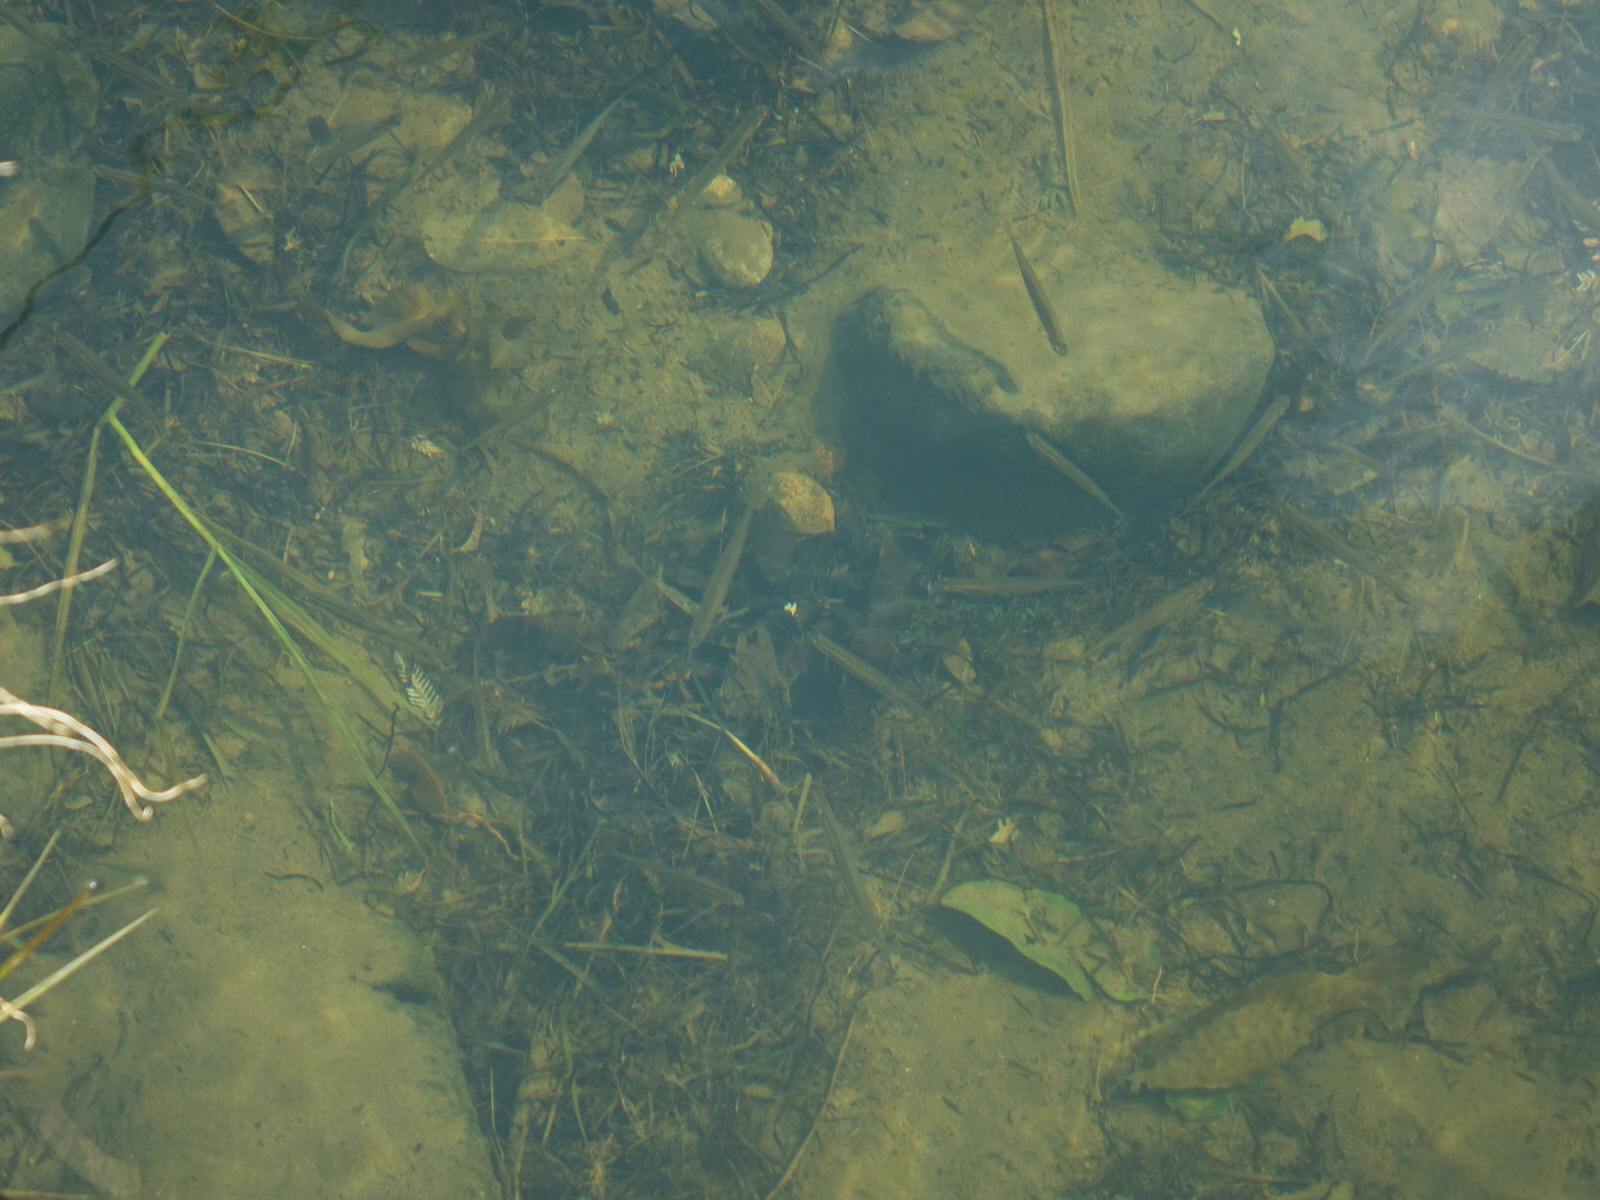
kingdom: Animalia
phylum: Chordata
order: Osmeriformes
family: Galaxiidae
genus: Galaxias
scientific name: Galaxias maculatus
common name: Common galaxias
